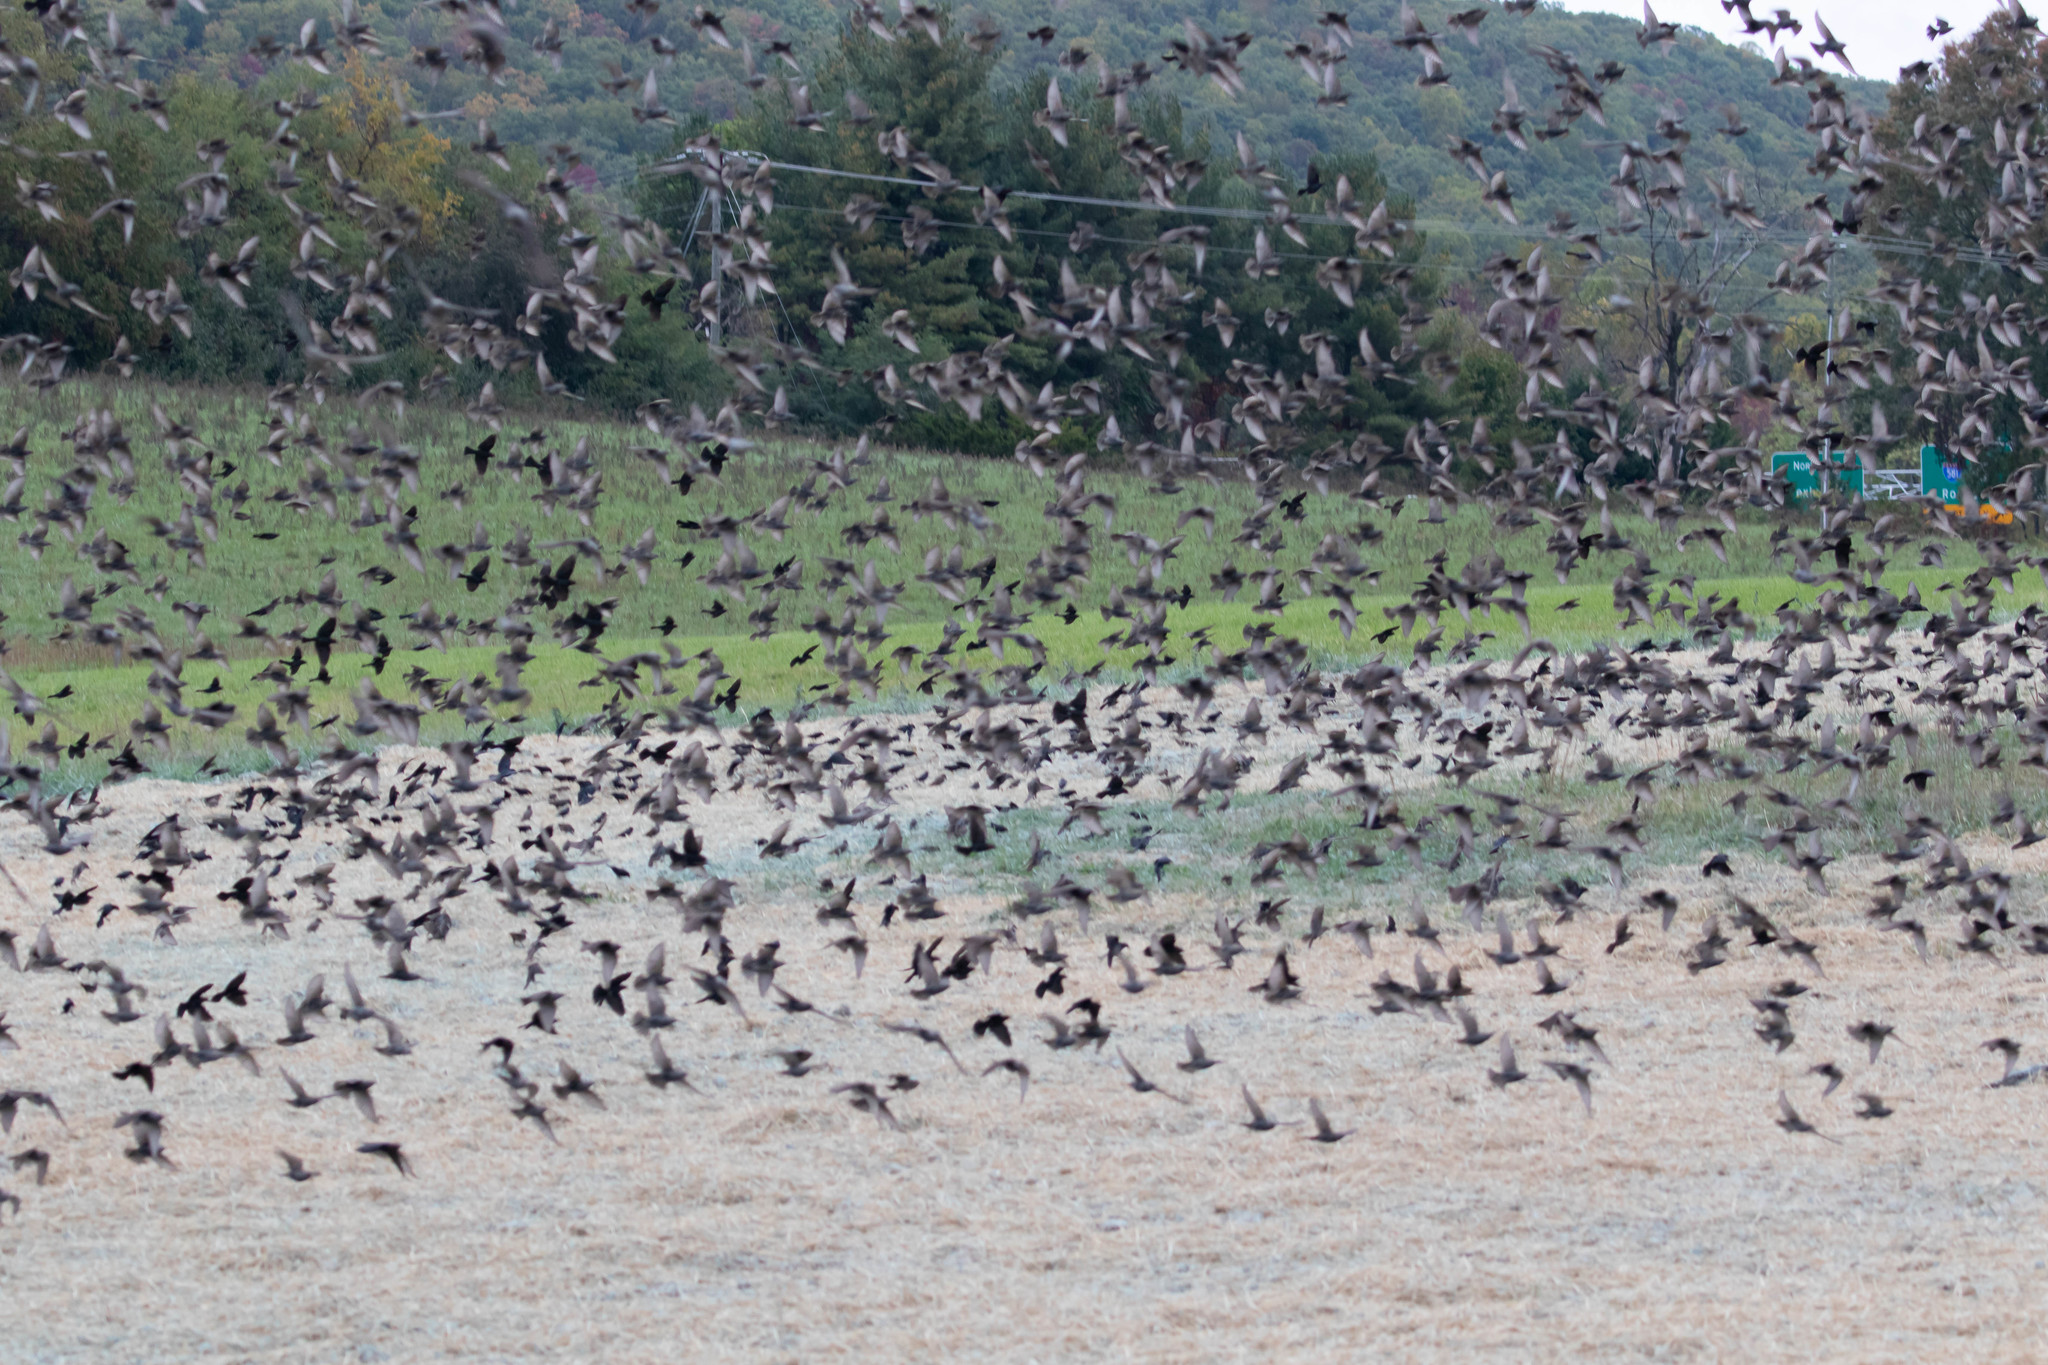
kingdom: Animalia
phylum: Chordata
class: Aves
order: Passeriformes
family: Sturnidae
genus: Sturnus
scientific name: Sturnus vulgaris
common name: Common starling
